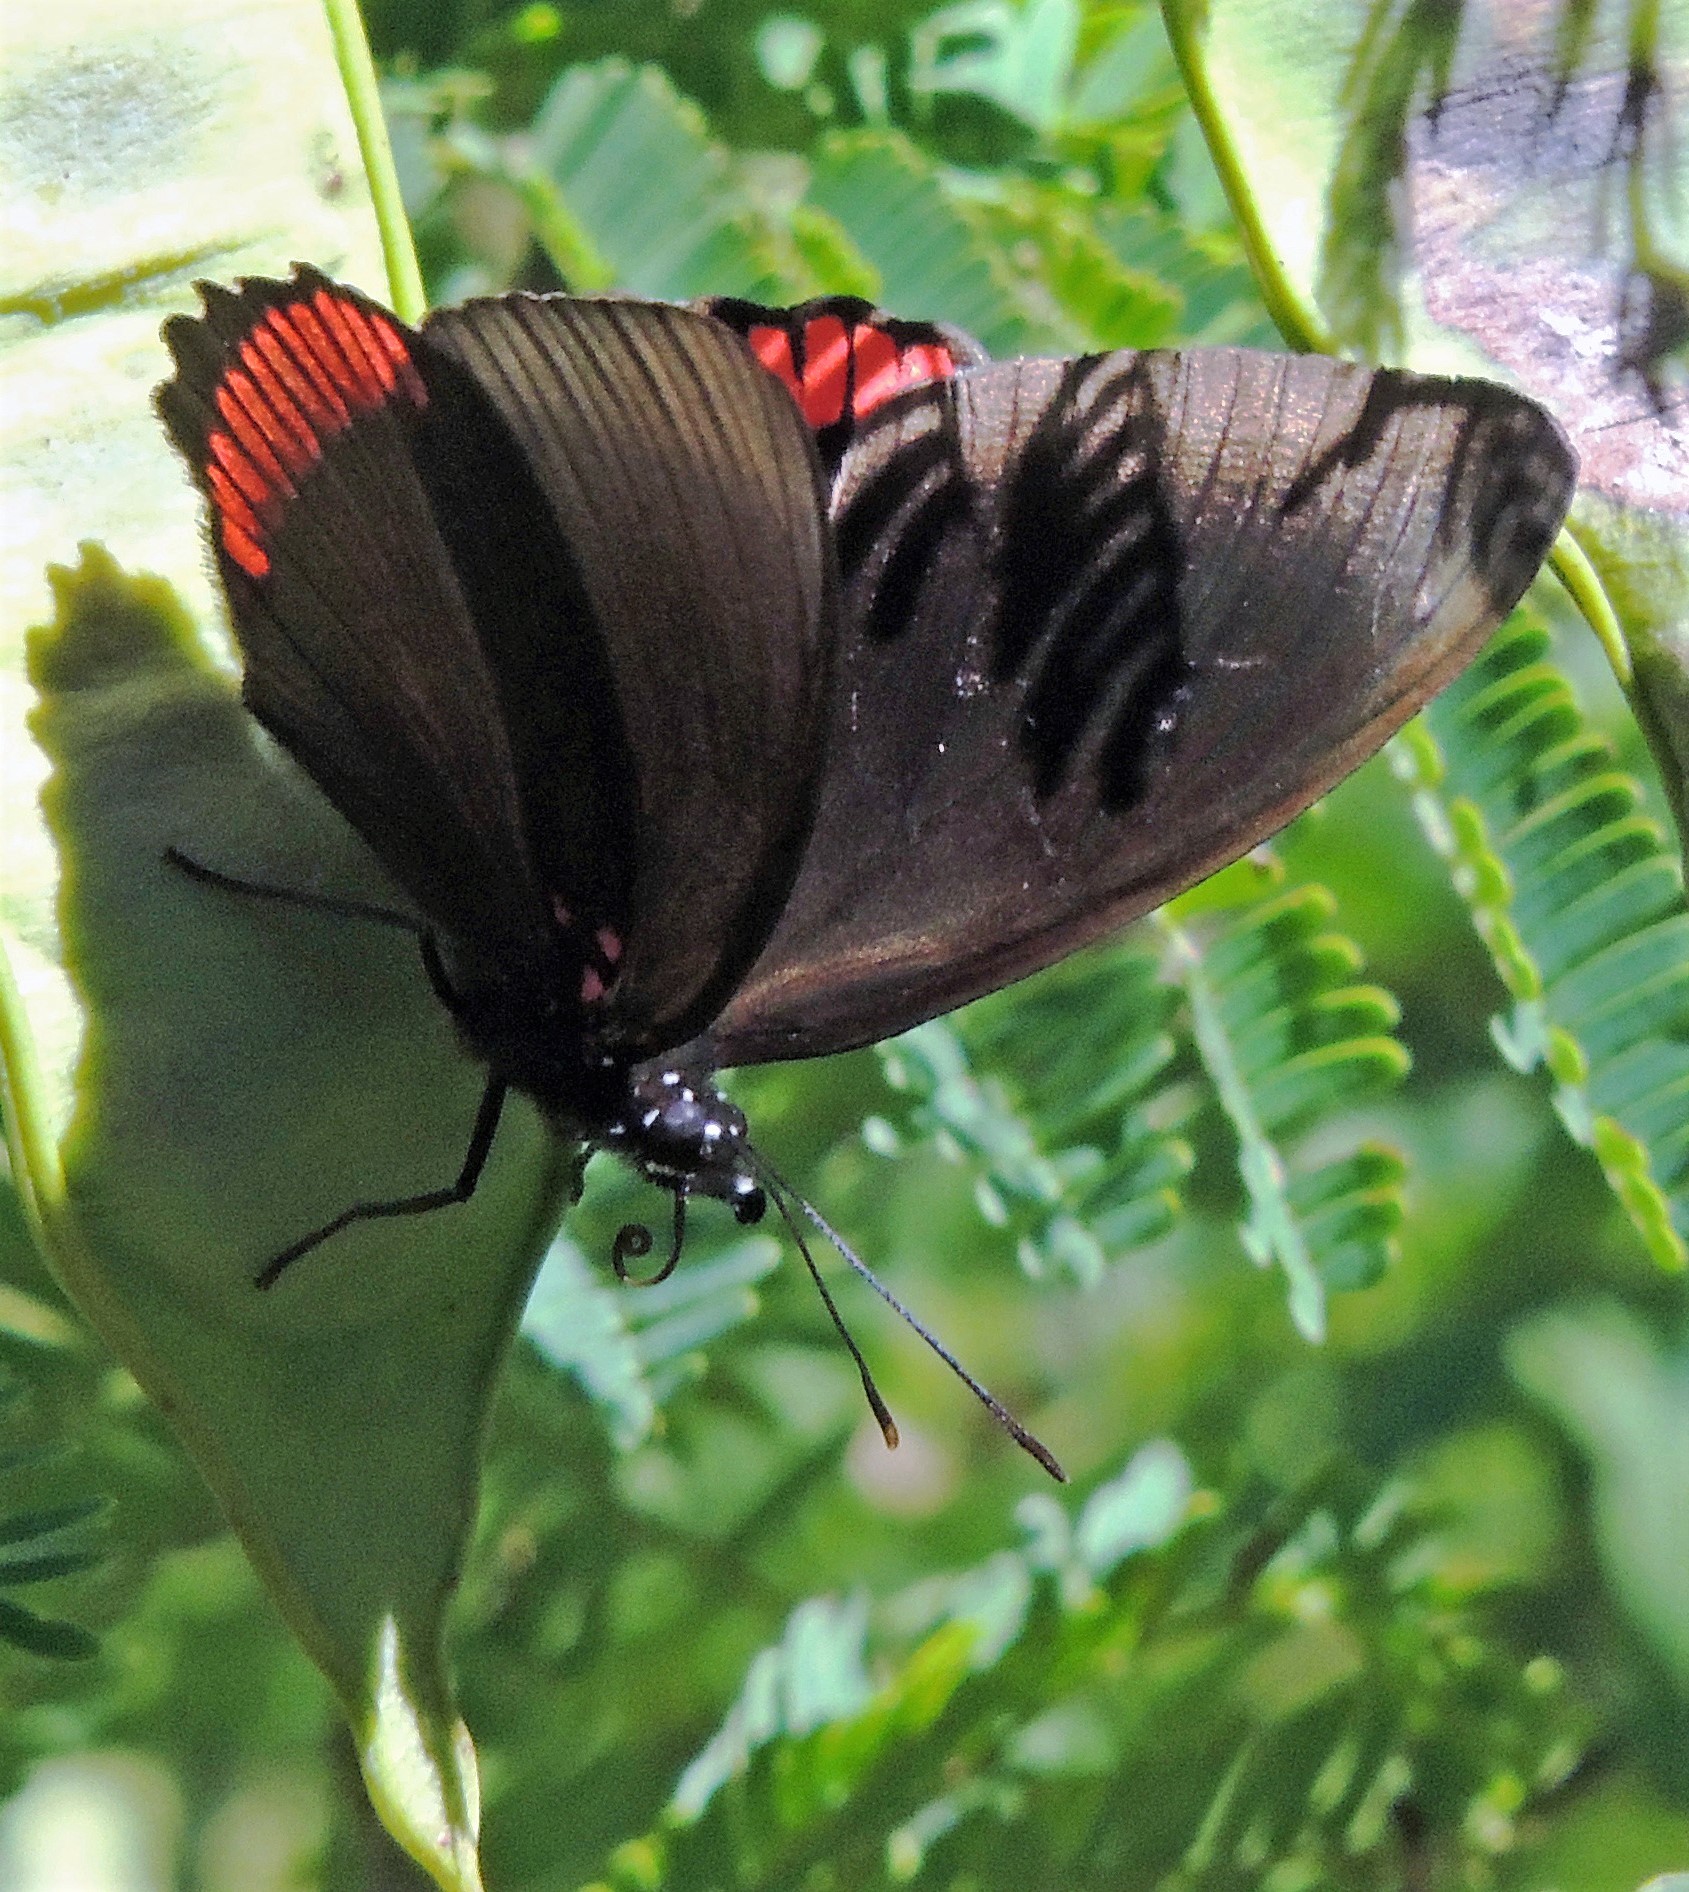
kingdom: Animalia
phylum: Arthropoda
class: Insecta
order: Lepidoptera
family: Sesiidae
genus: Sesia
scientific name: Sesia Biblis hyperia
